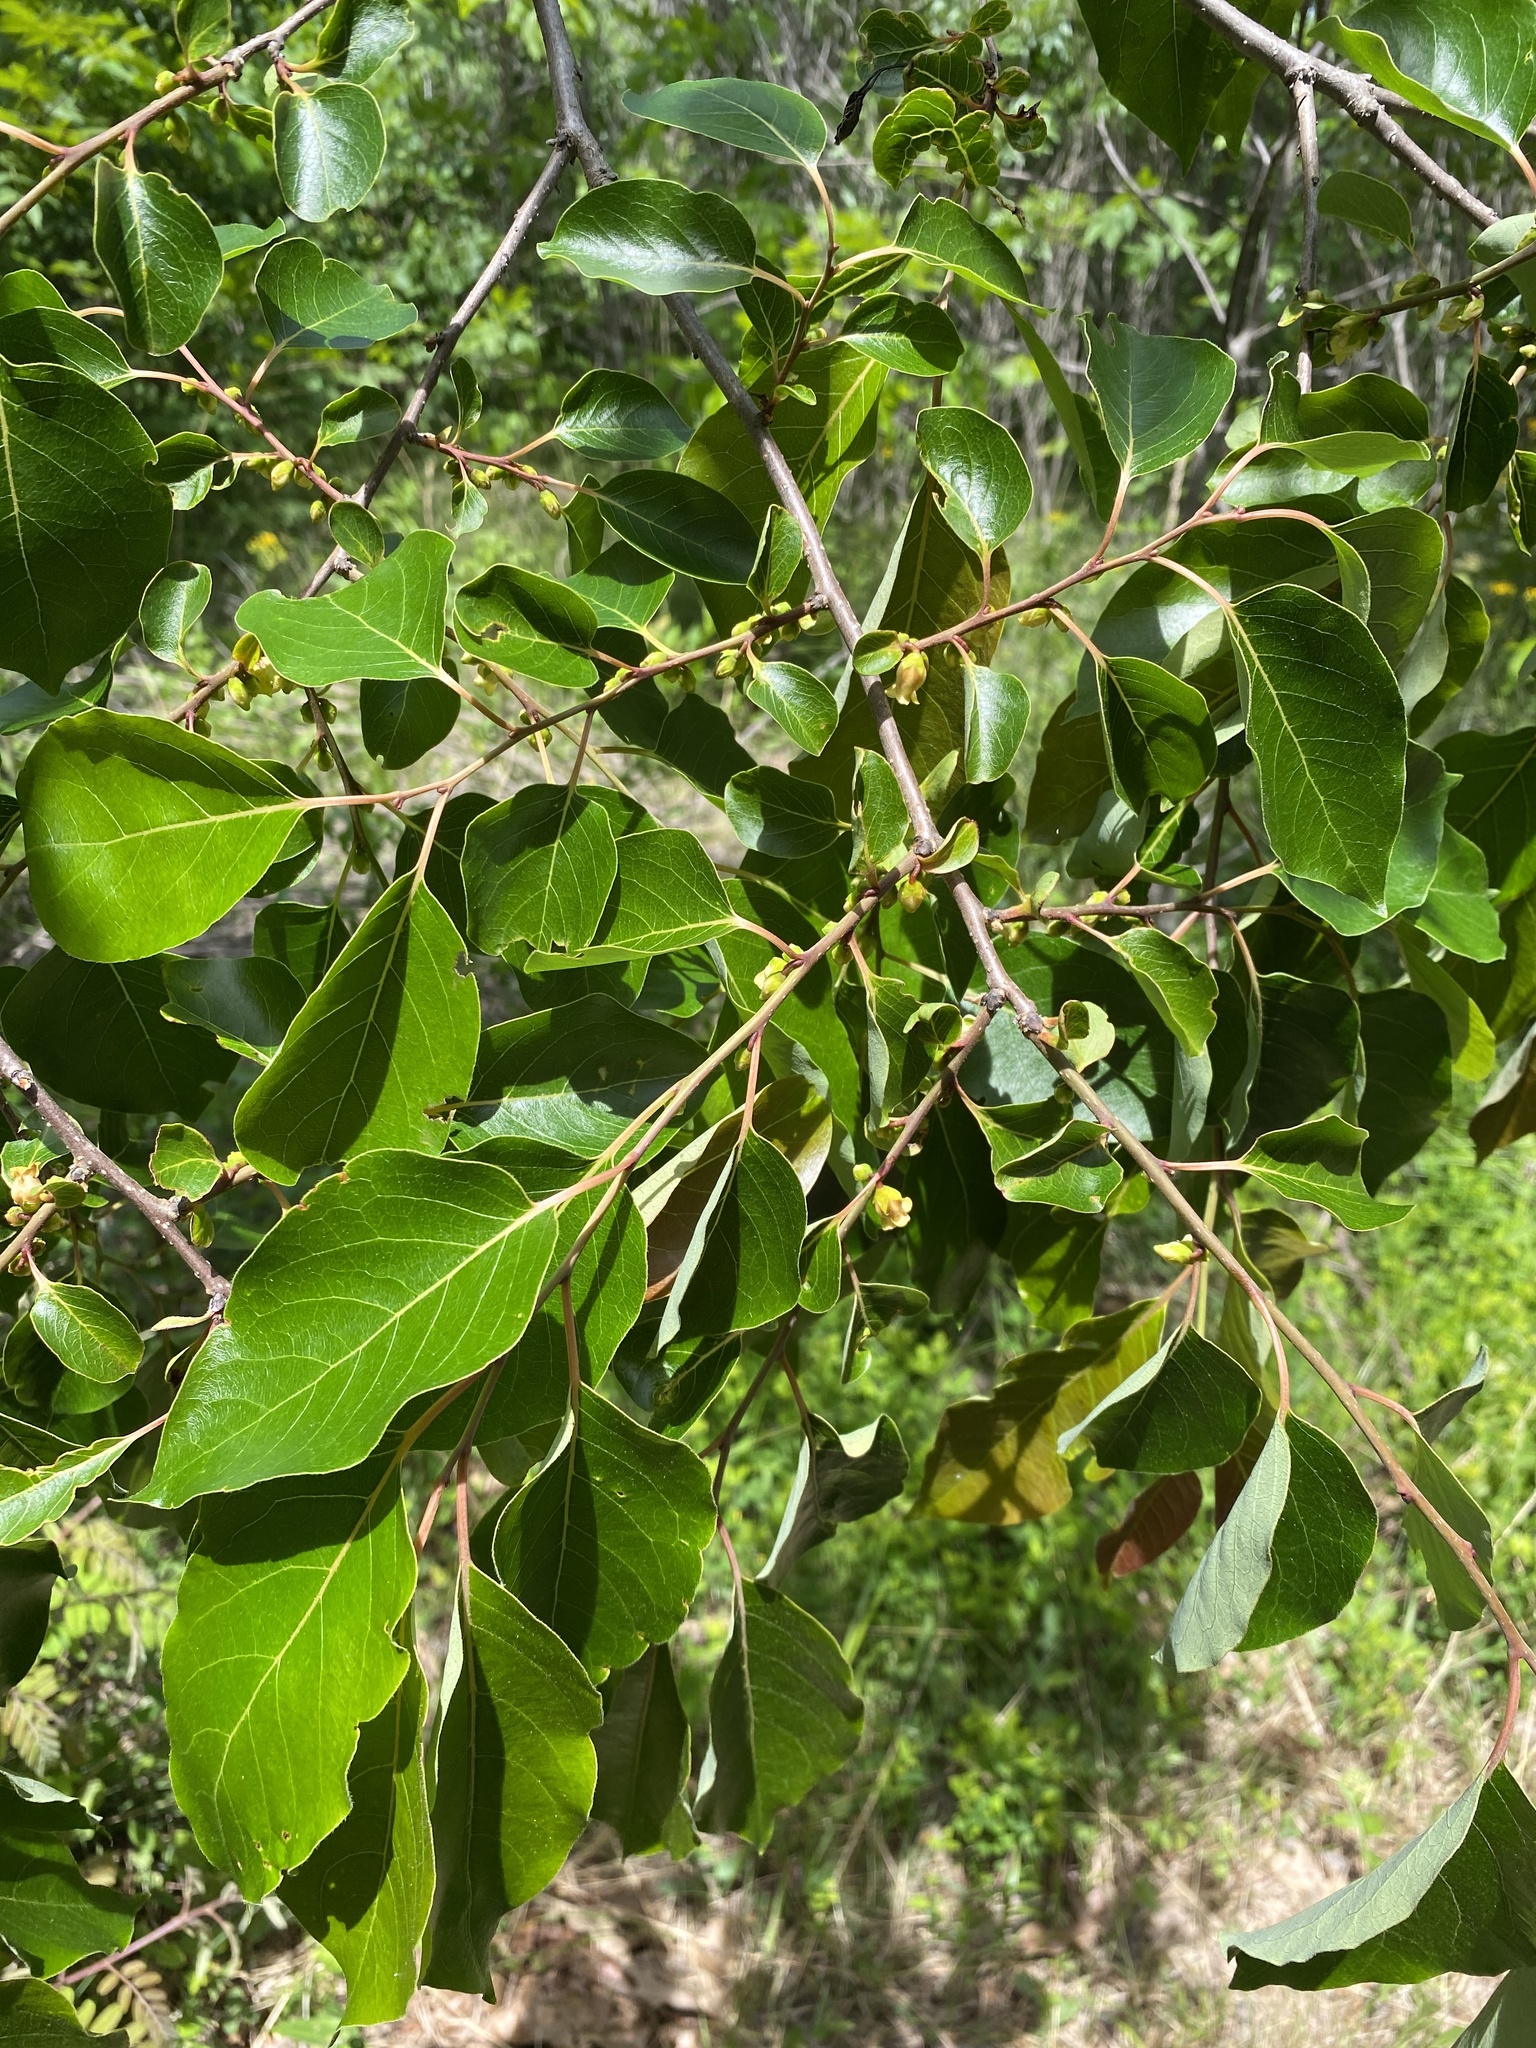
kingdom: Plantae
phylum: Tracheophyta
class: Magnoliopsida
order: Ericales
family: Ebenaceae
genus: Diospyros
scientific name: Diospyros virginiana
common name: Persimmon
